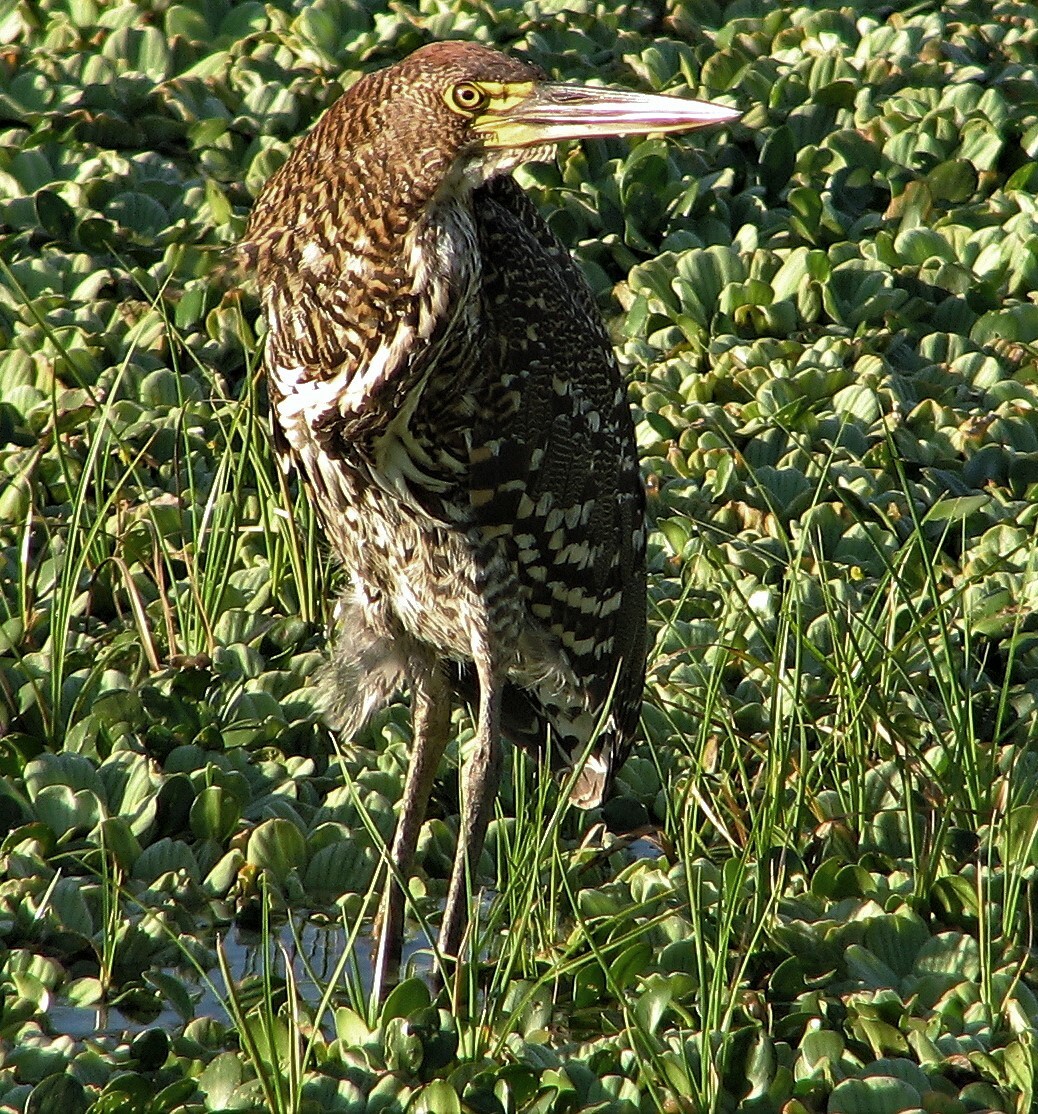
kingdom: Animalia
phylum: Chordata
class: Aves
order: Pelecaniformes
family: Ardeidae
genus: Tigrisoma
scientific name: Tigrisoma lineatum
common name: Rufescent tiger-heron
